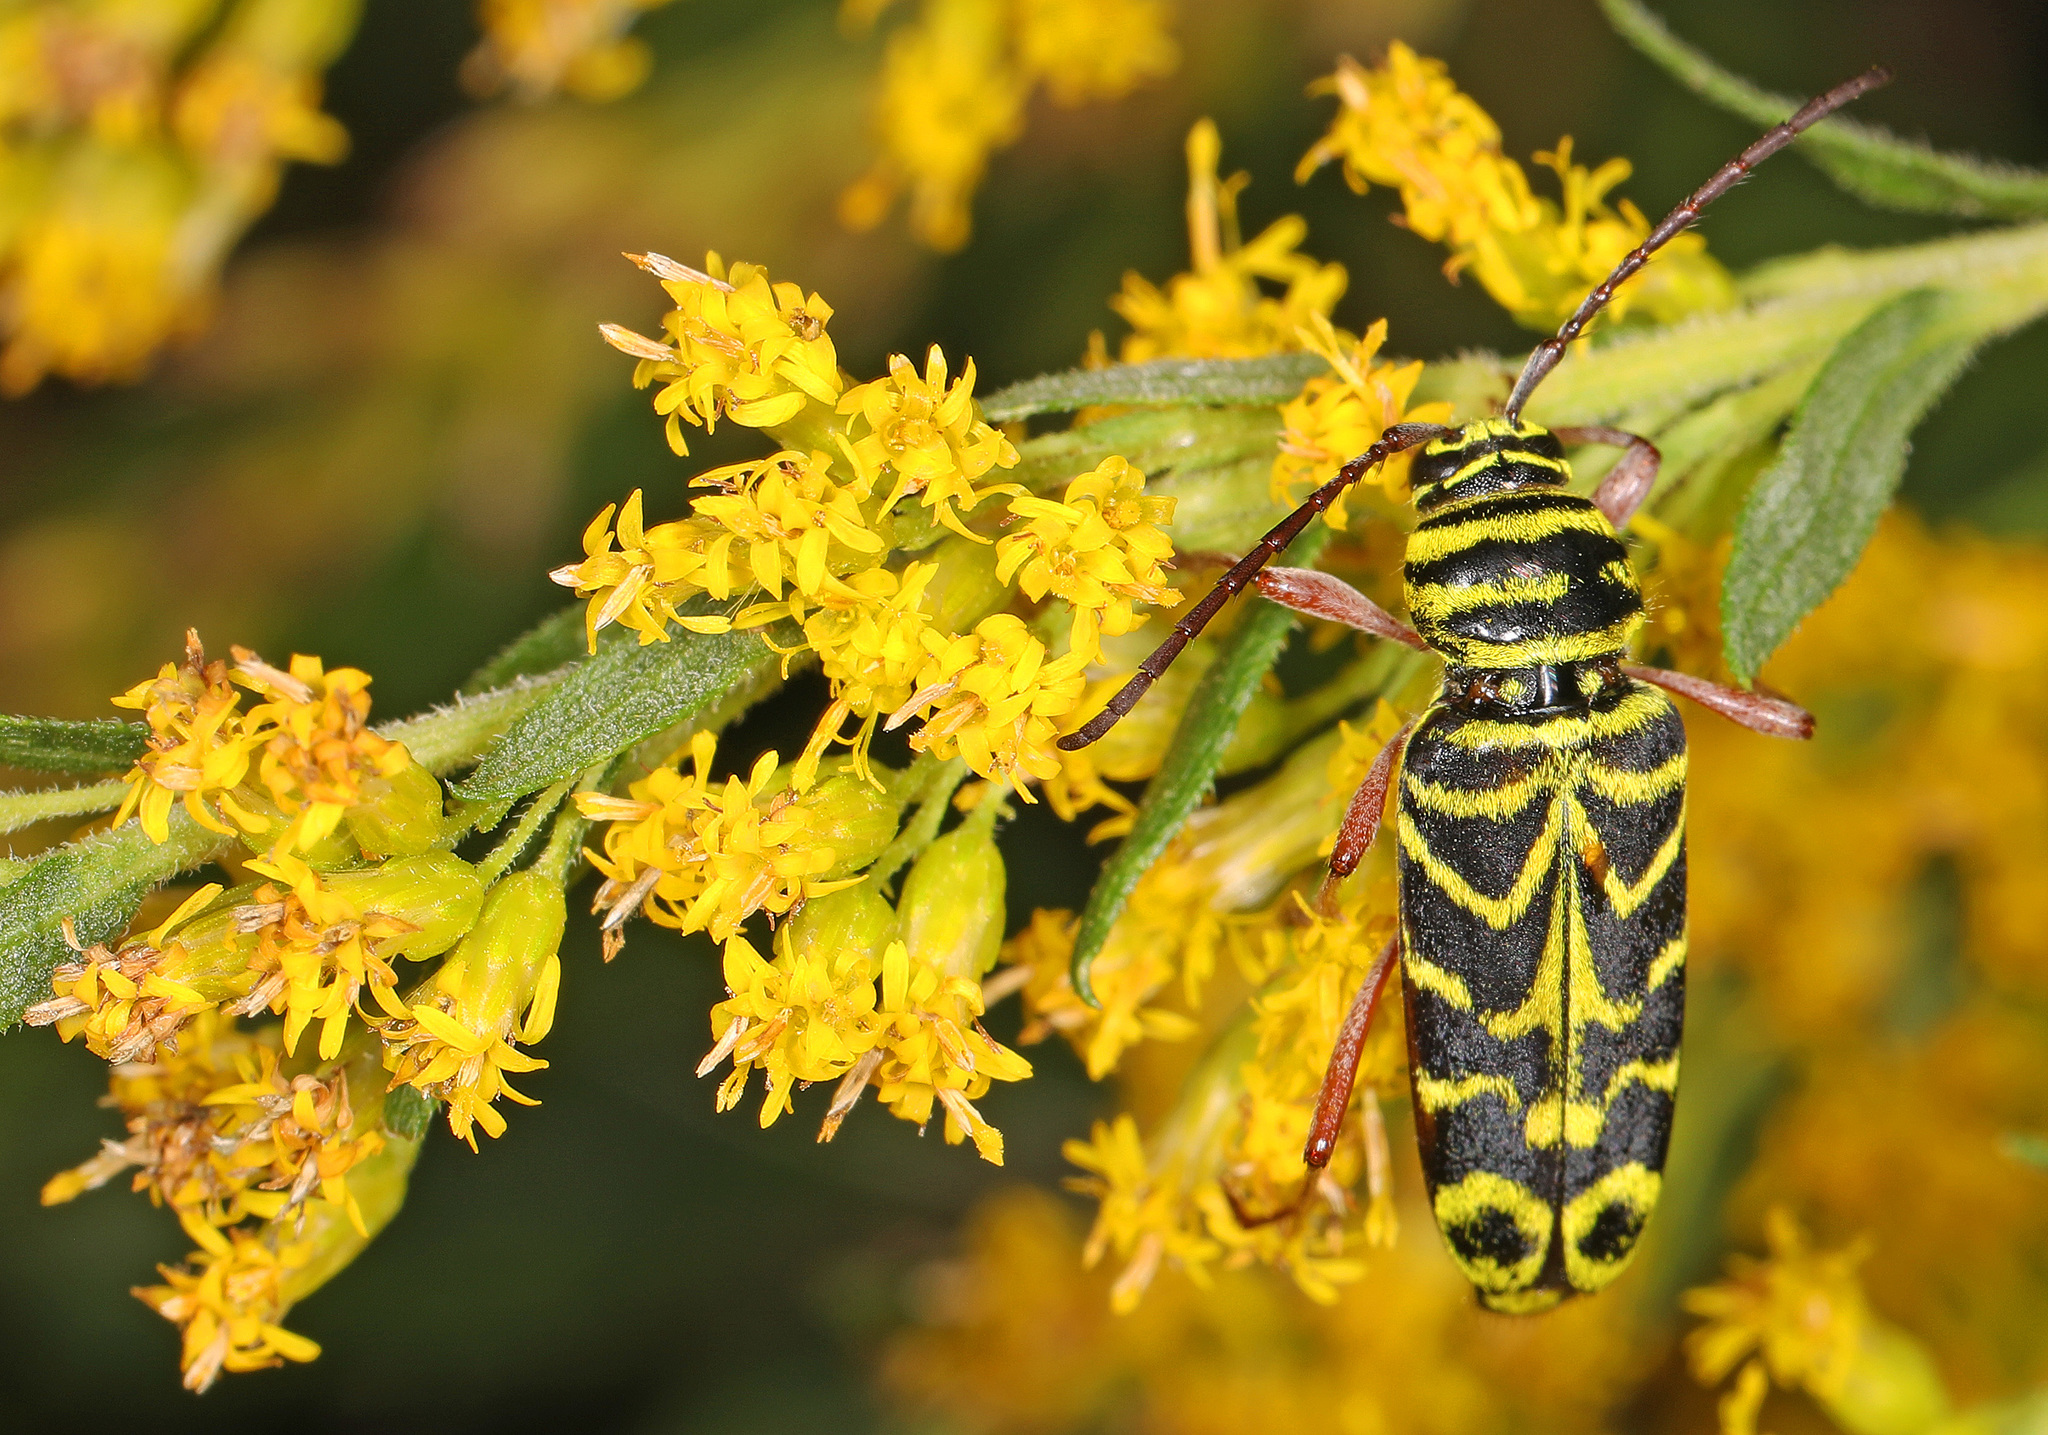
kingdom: Animalia
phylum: Arthropoda
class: Insecta
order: Coleoptera
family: Cerambycidae
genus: Megacyllene
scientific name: Megacyllene robiniae
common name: Locust borer
